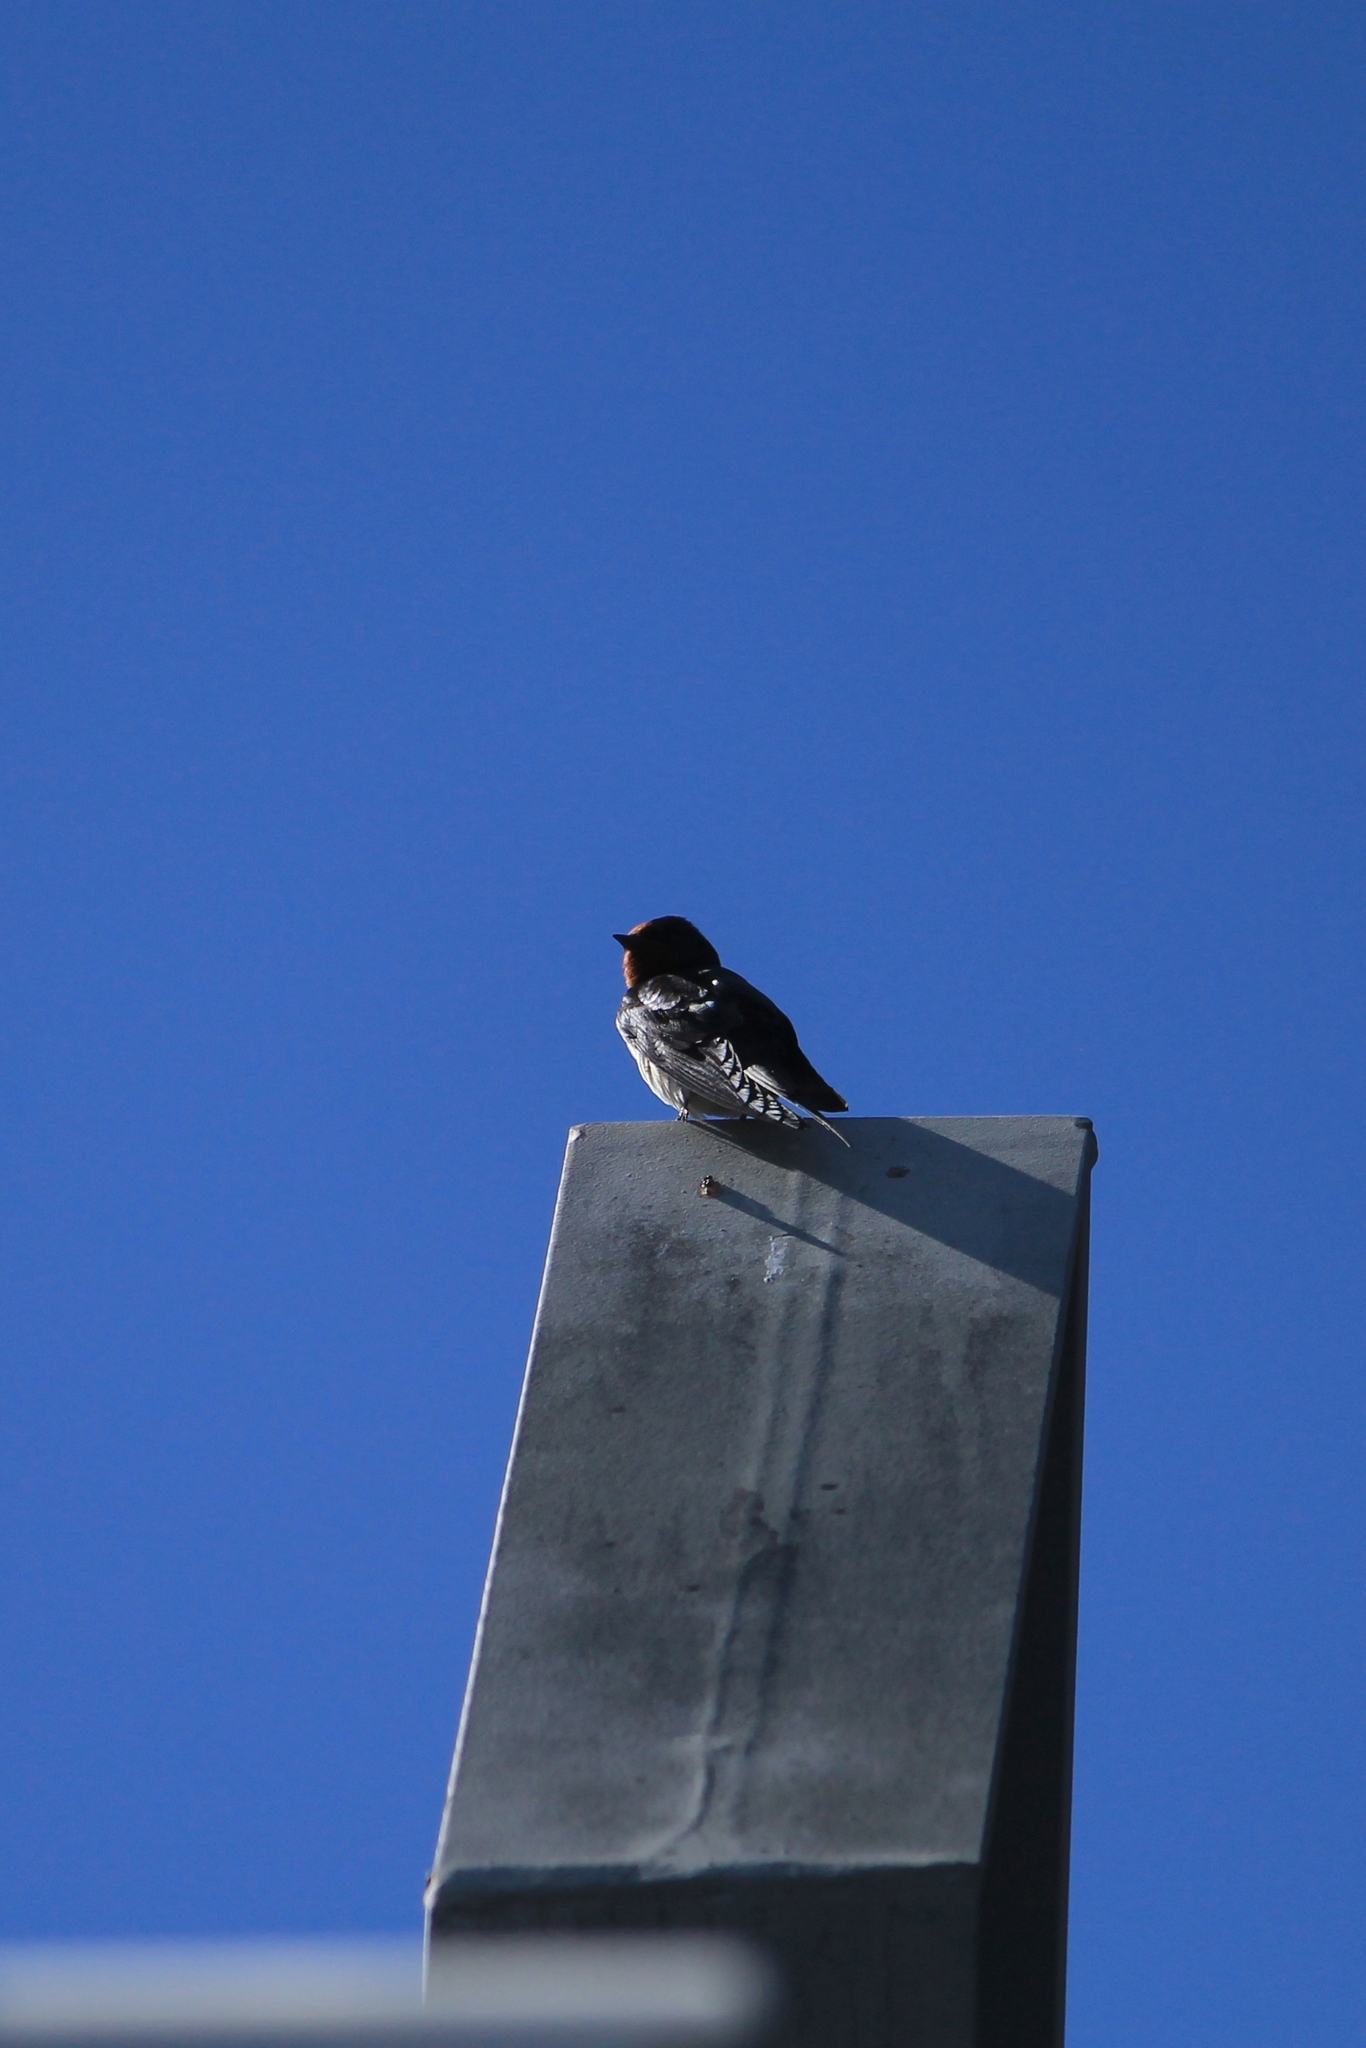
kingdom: Animalia
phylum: Chordata
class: Aves
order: Passeriformes
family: Hirundinidae
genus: Hirundo
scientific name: Hirundo rustica
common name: Barn swallow
